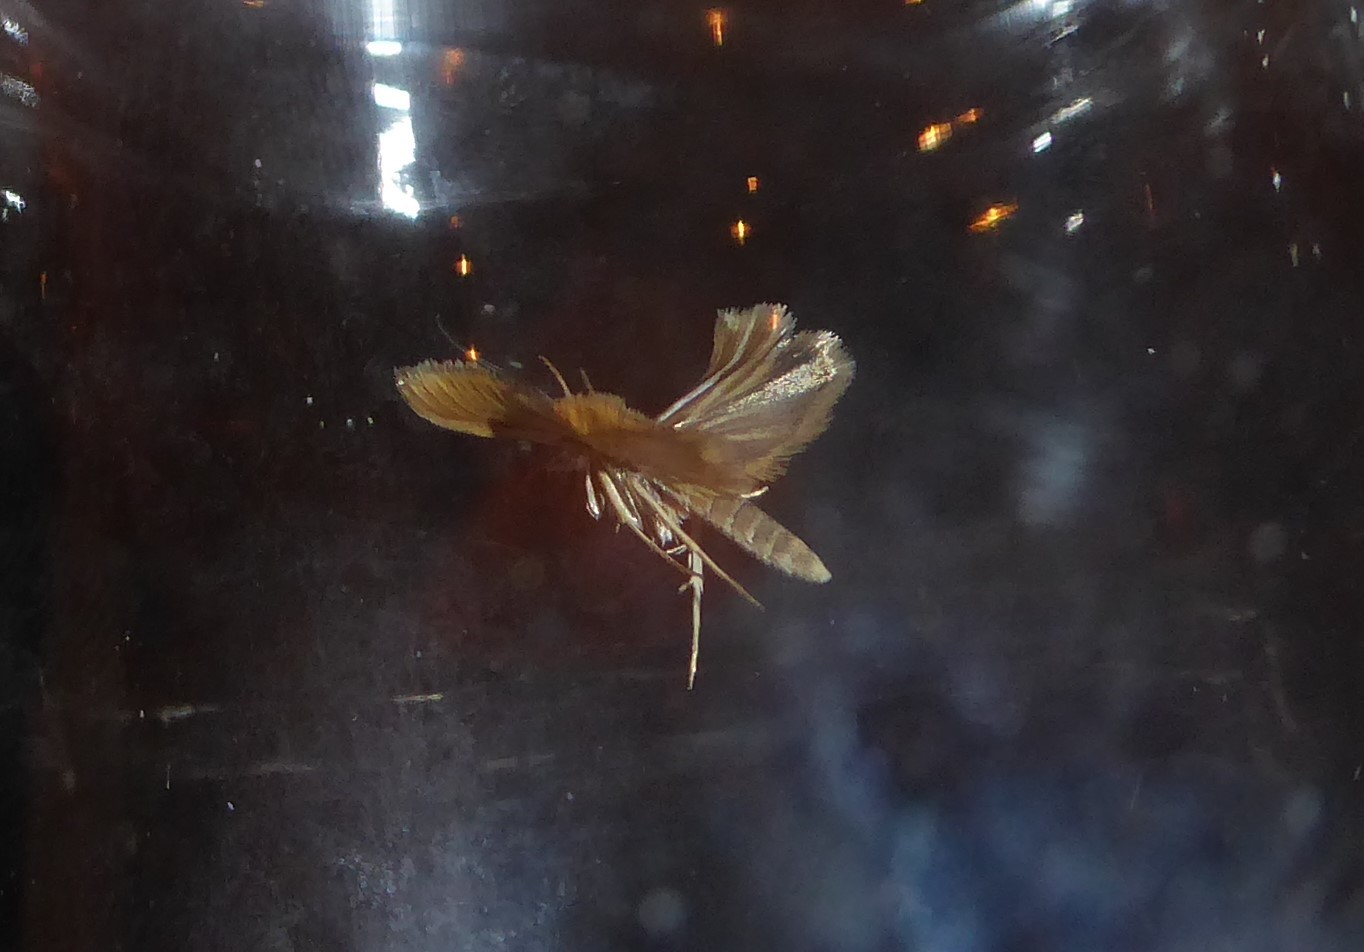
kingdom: Animalia
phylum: Arthropoda
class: Insecta
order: Lepidoptera
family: Crambidae
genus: Orocrambus
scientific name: Orocrambus aethonellus
